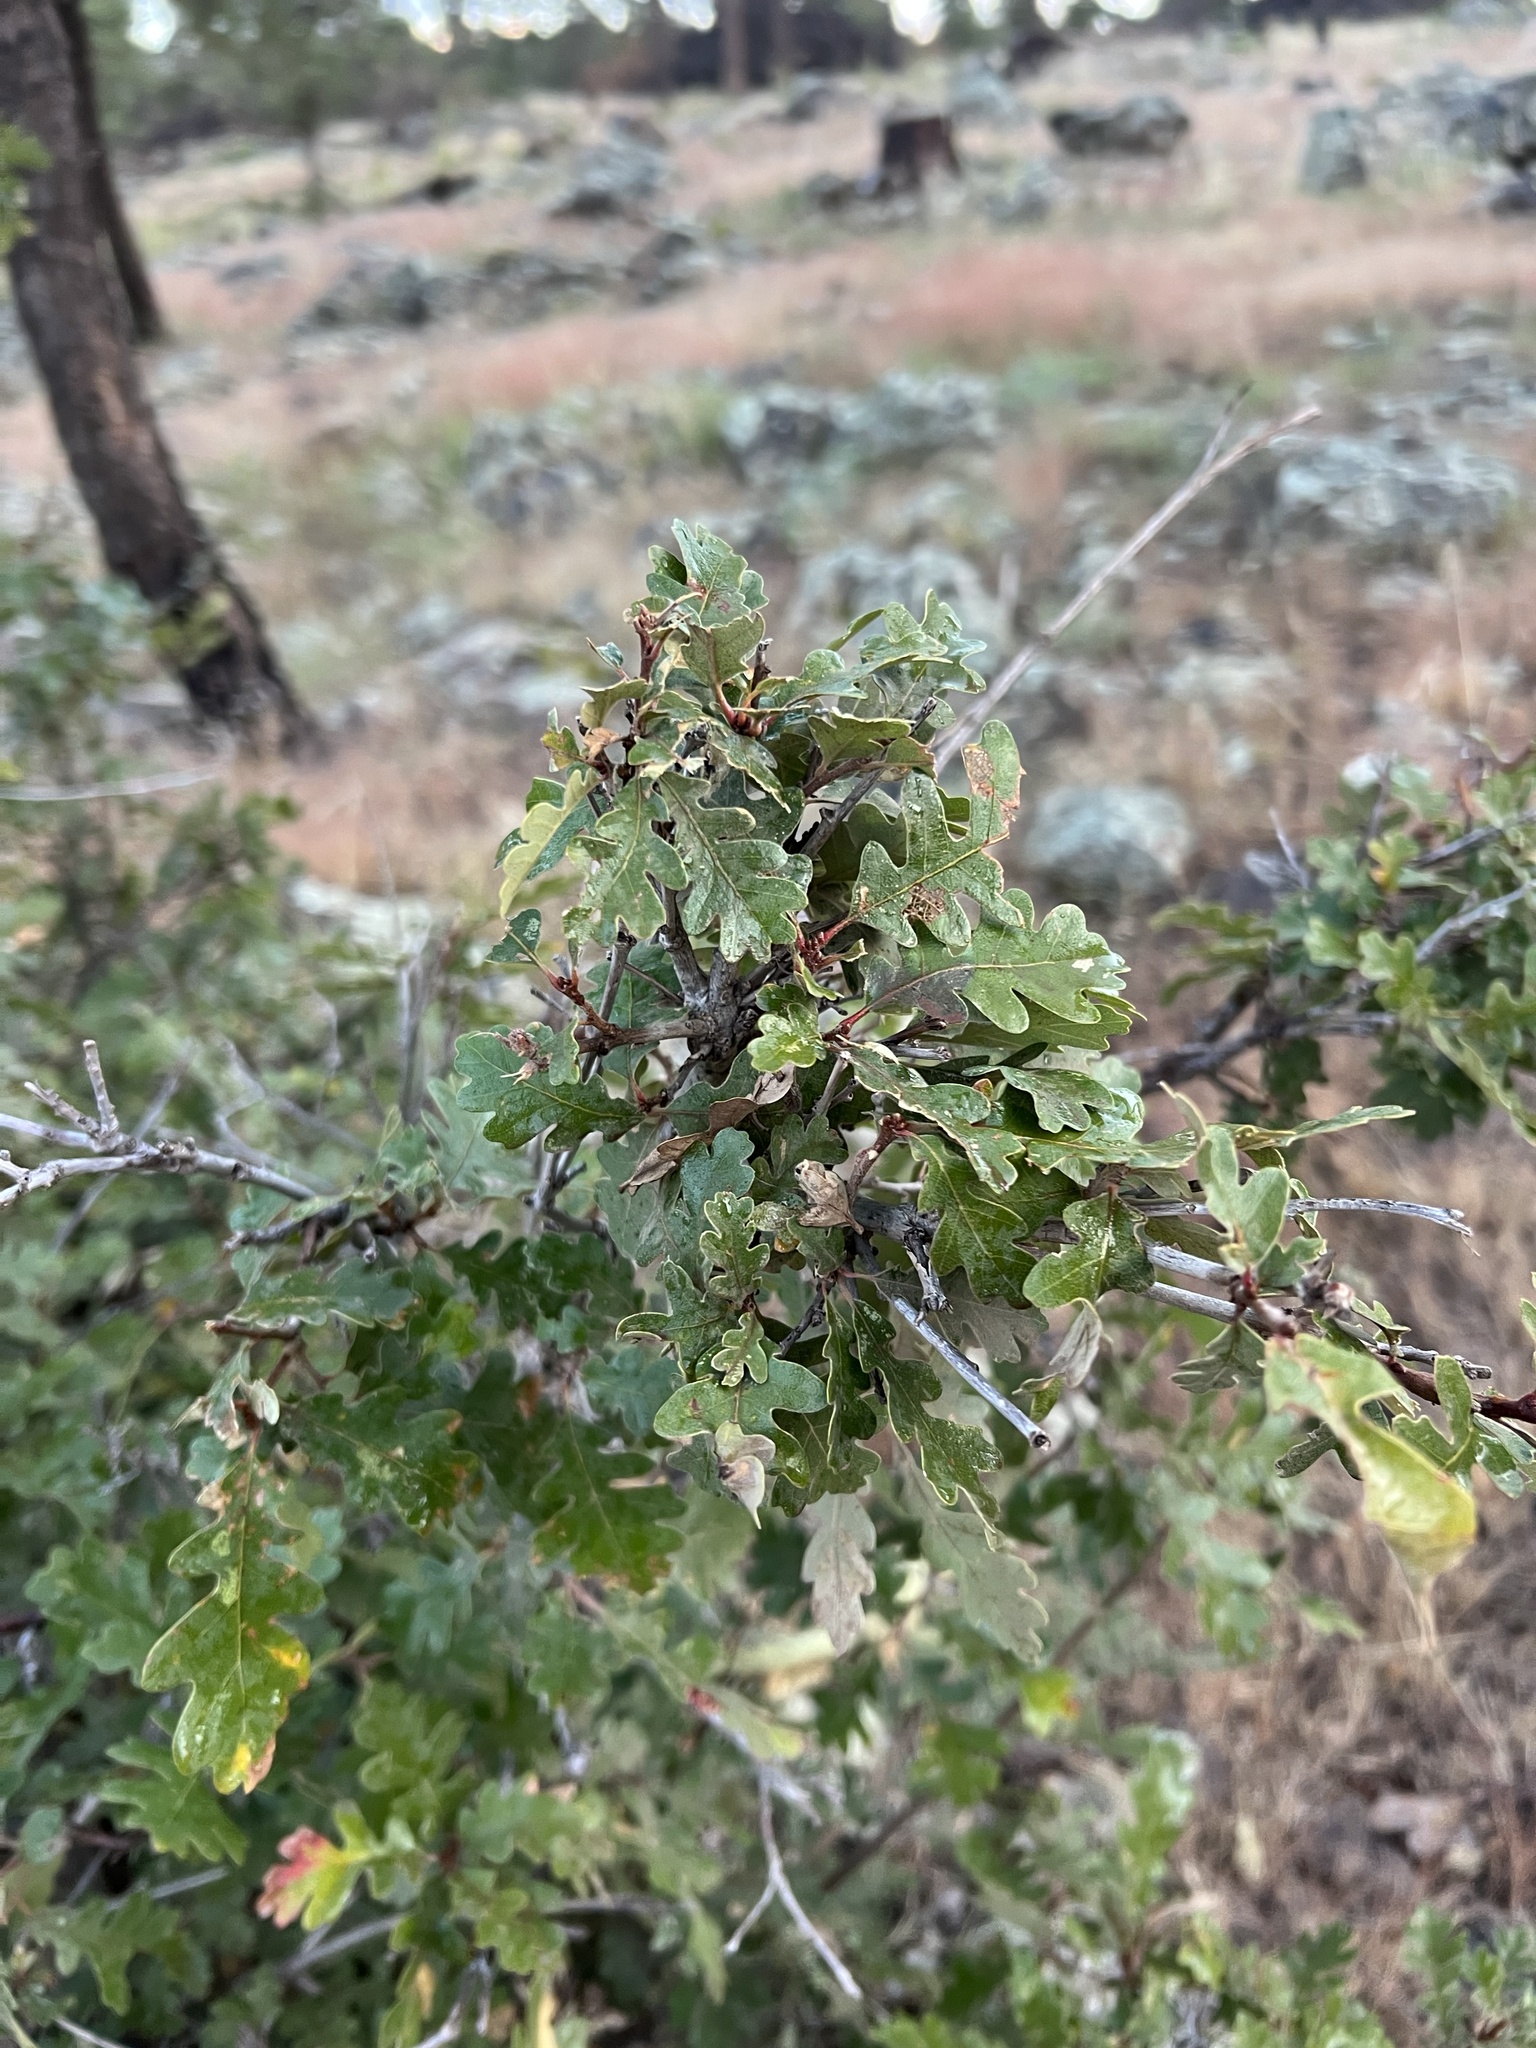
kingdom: Plantae
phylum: Tracheophyta
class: Magnoliopsida
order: Fagales
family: Fagaceae
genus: Quercus
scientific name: Quercus gambelii
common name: Gambel oak
